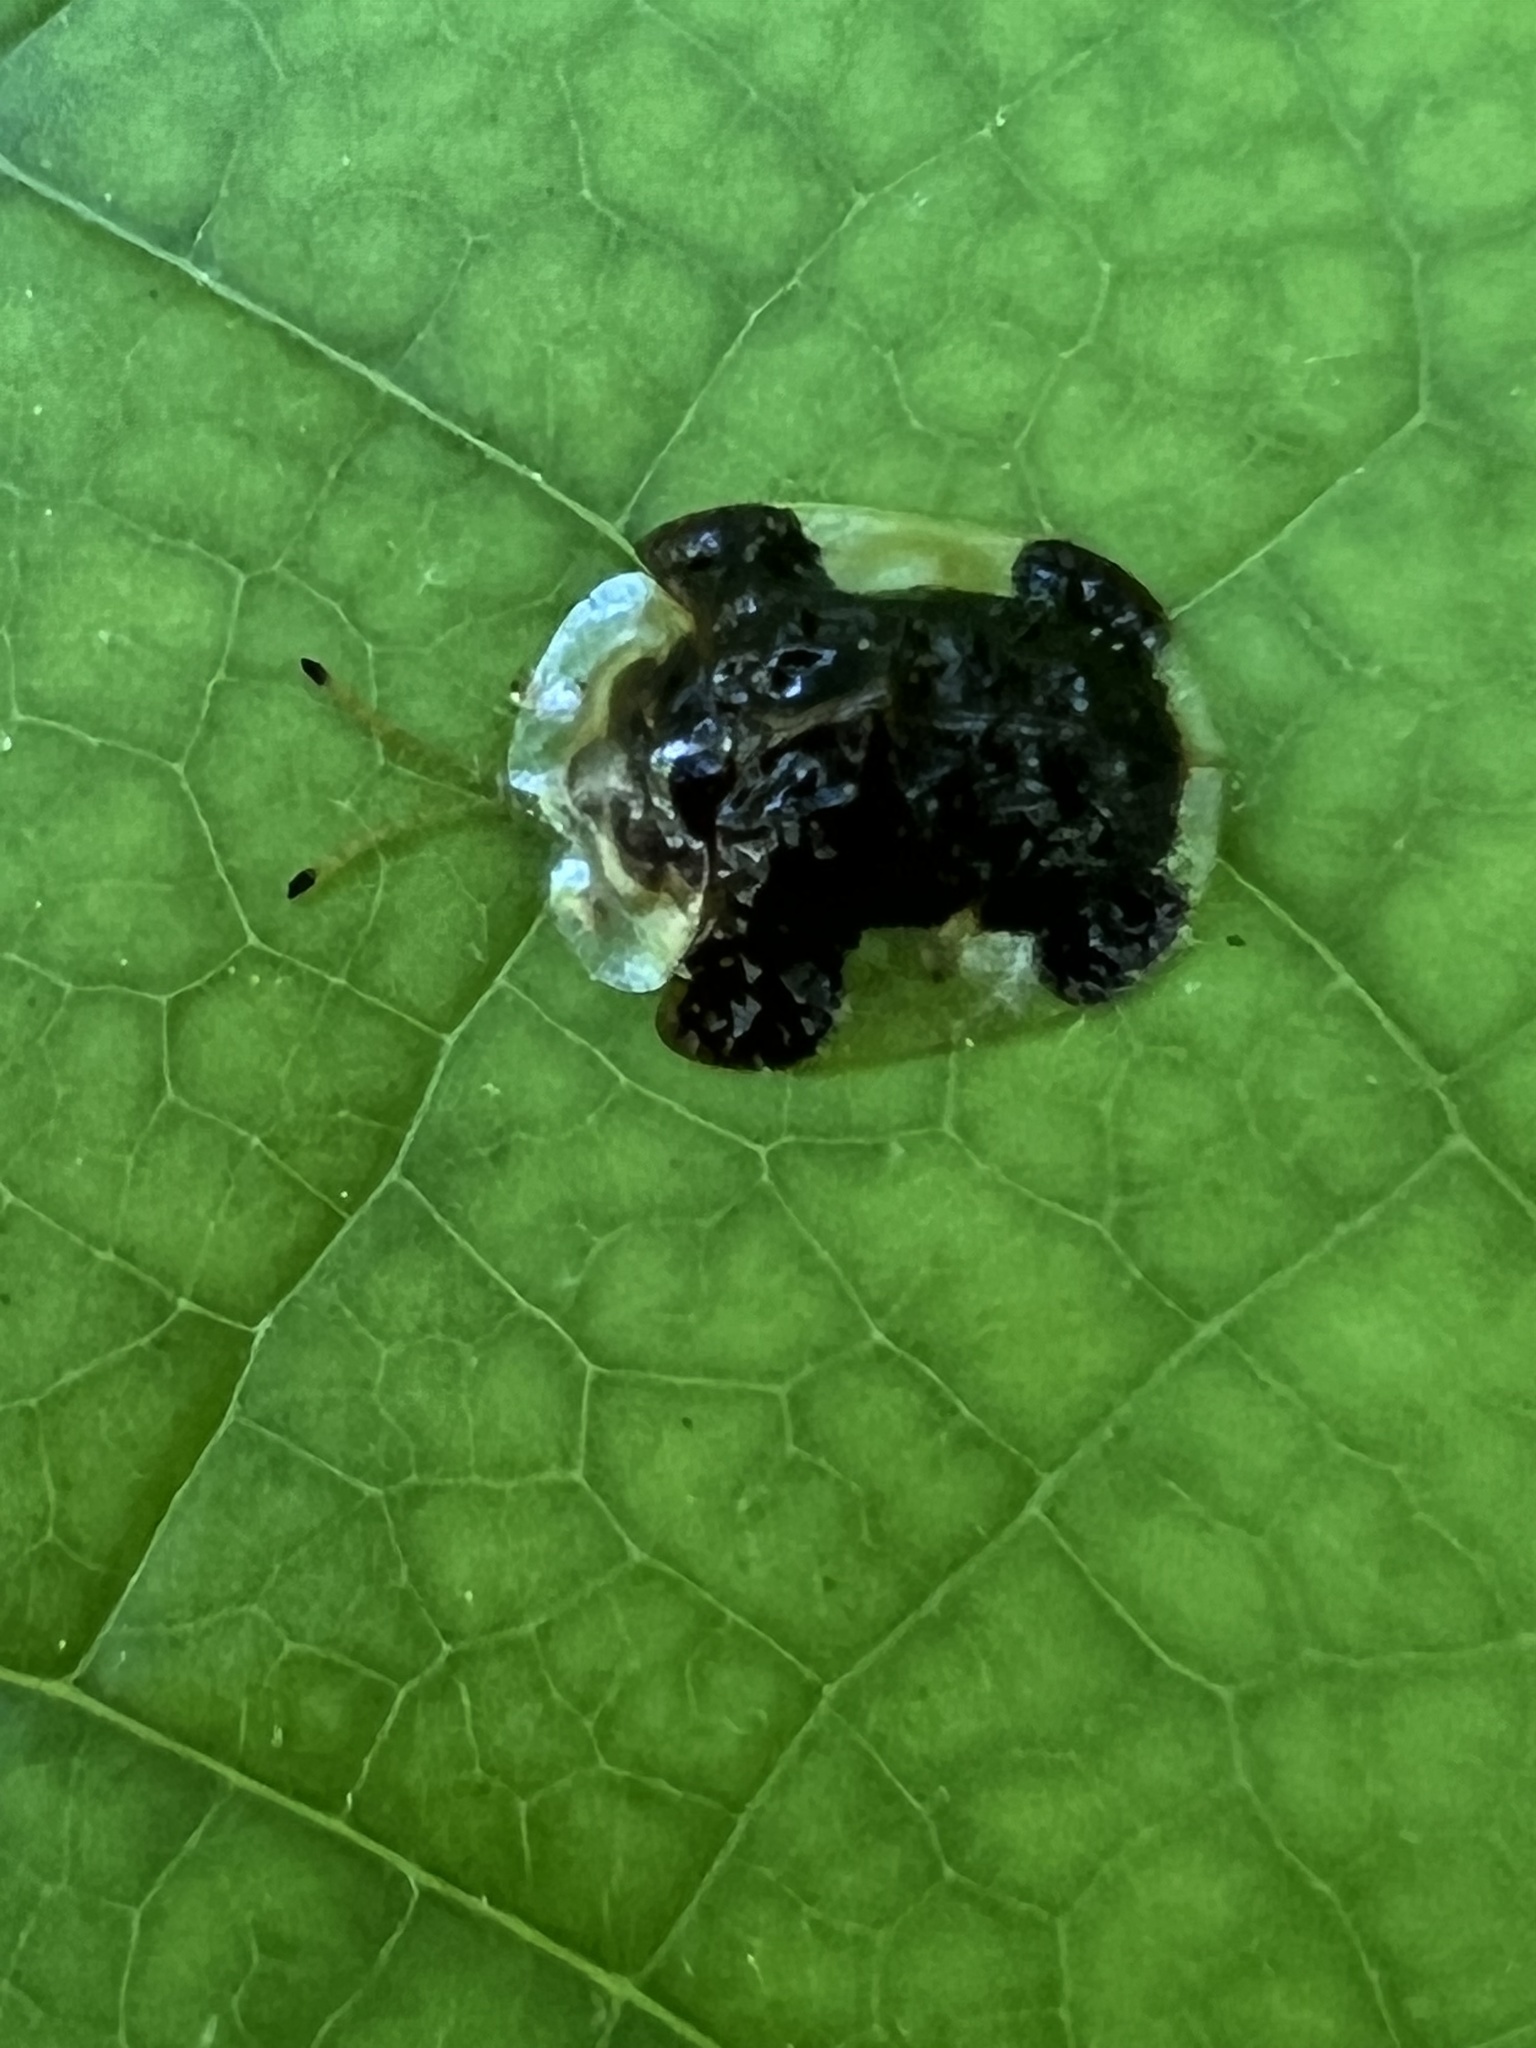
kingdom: Animalia
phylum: Arthropoda
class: Insecta
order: Coleoptera
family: Chrysomelidae
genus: Helocassis
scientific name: Helocassis clavata
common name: Clavate tortoise beetle
